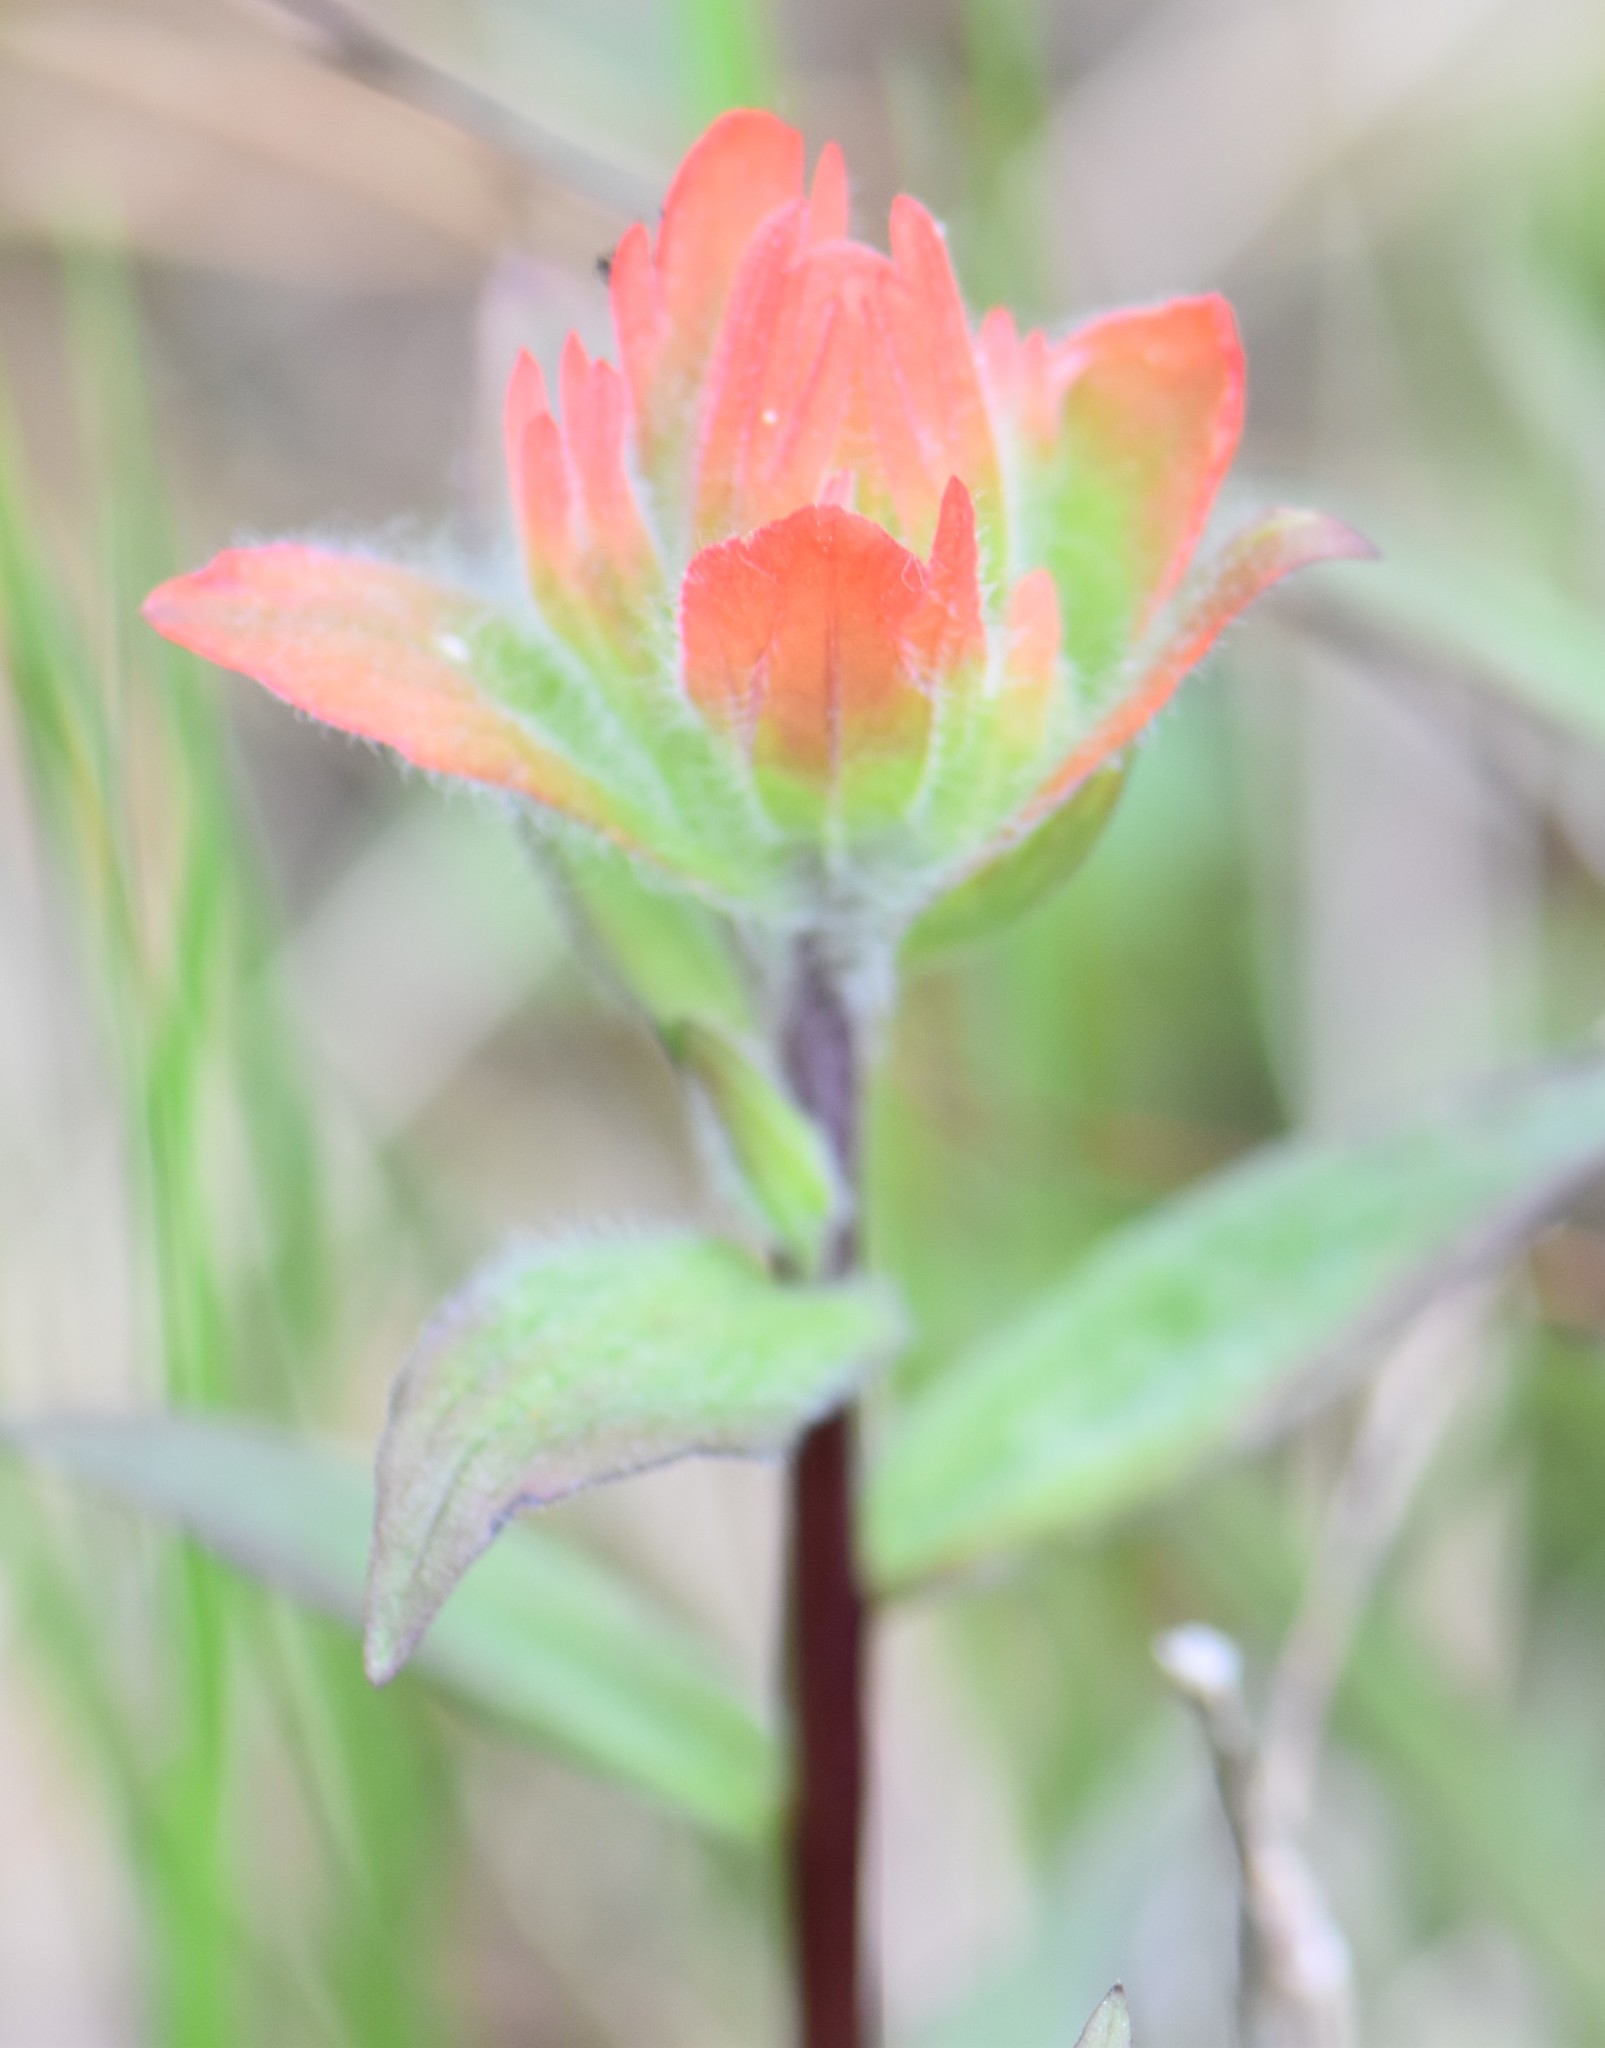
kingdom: Plantae
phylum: Tracheophyta
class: Magnoliopsida
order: Lamiales
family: Orobanchaceae
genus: Castilleja
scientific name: Castilleja miniata
